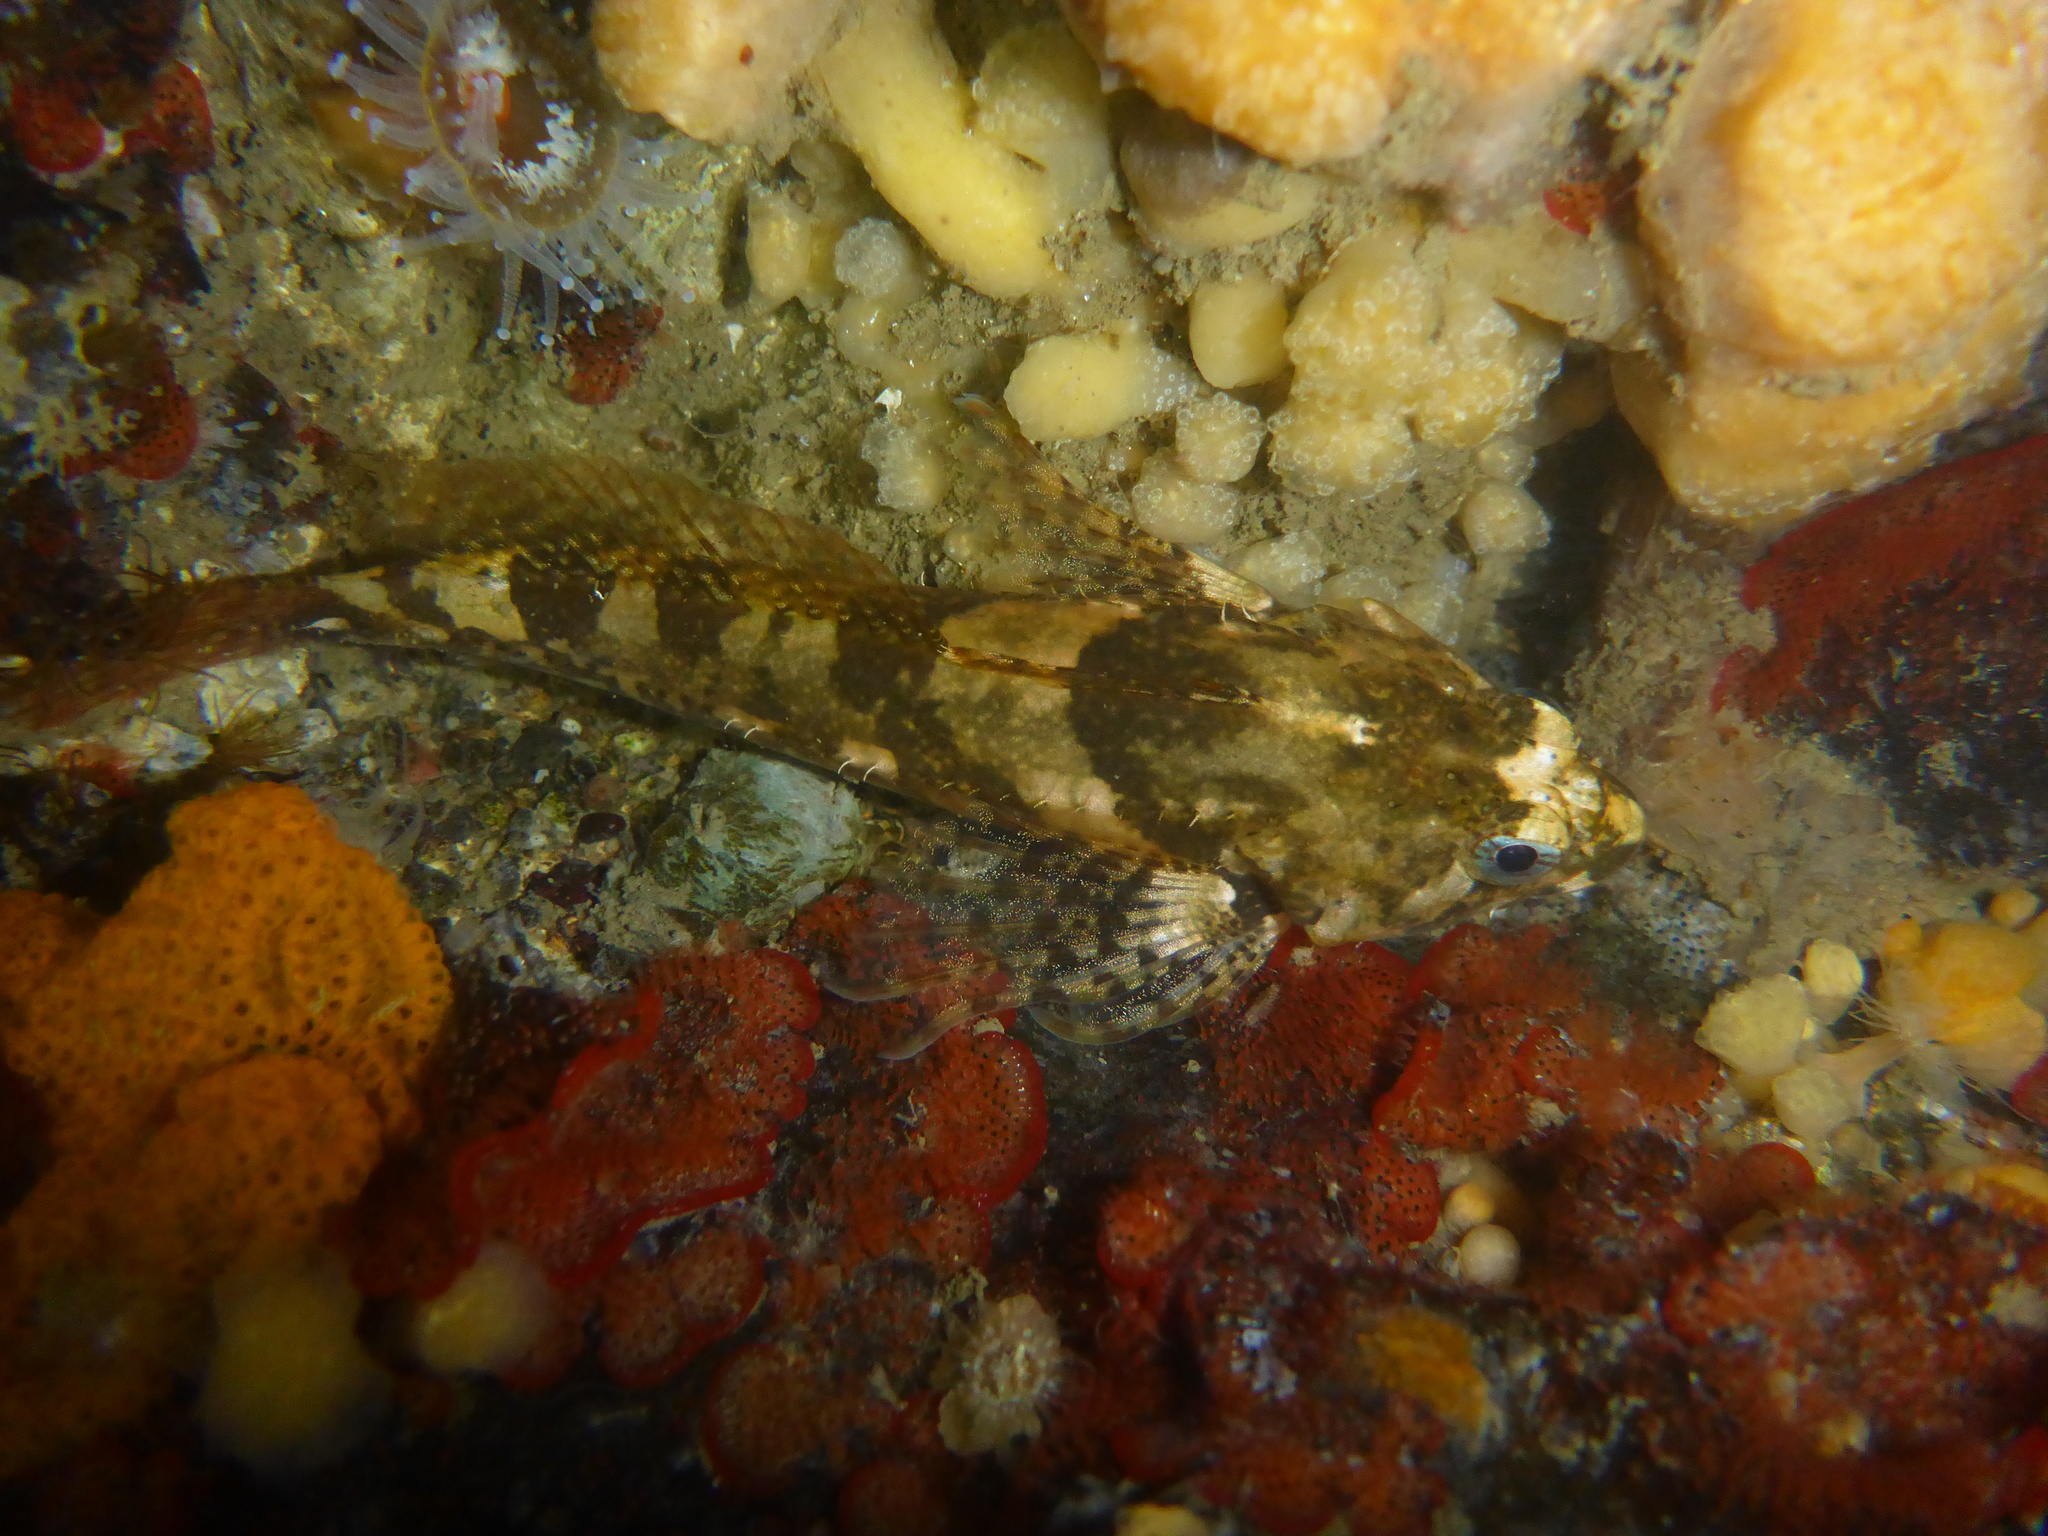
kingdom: Animalia
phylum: Chordata
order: Scorpaeniformes
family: Cottidae
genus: Oligocottus
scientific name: Oligocottus maculosus
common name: Tidepool sculpin
